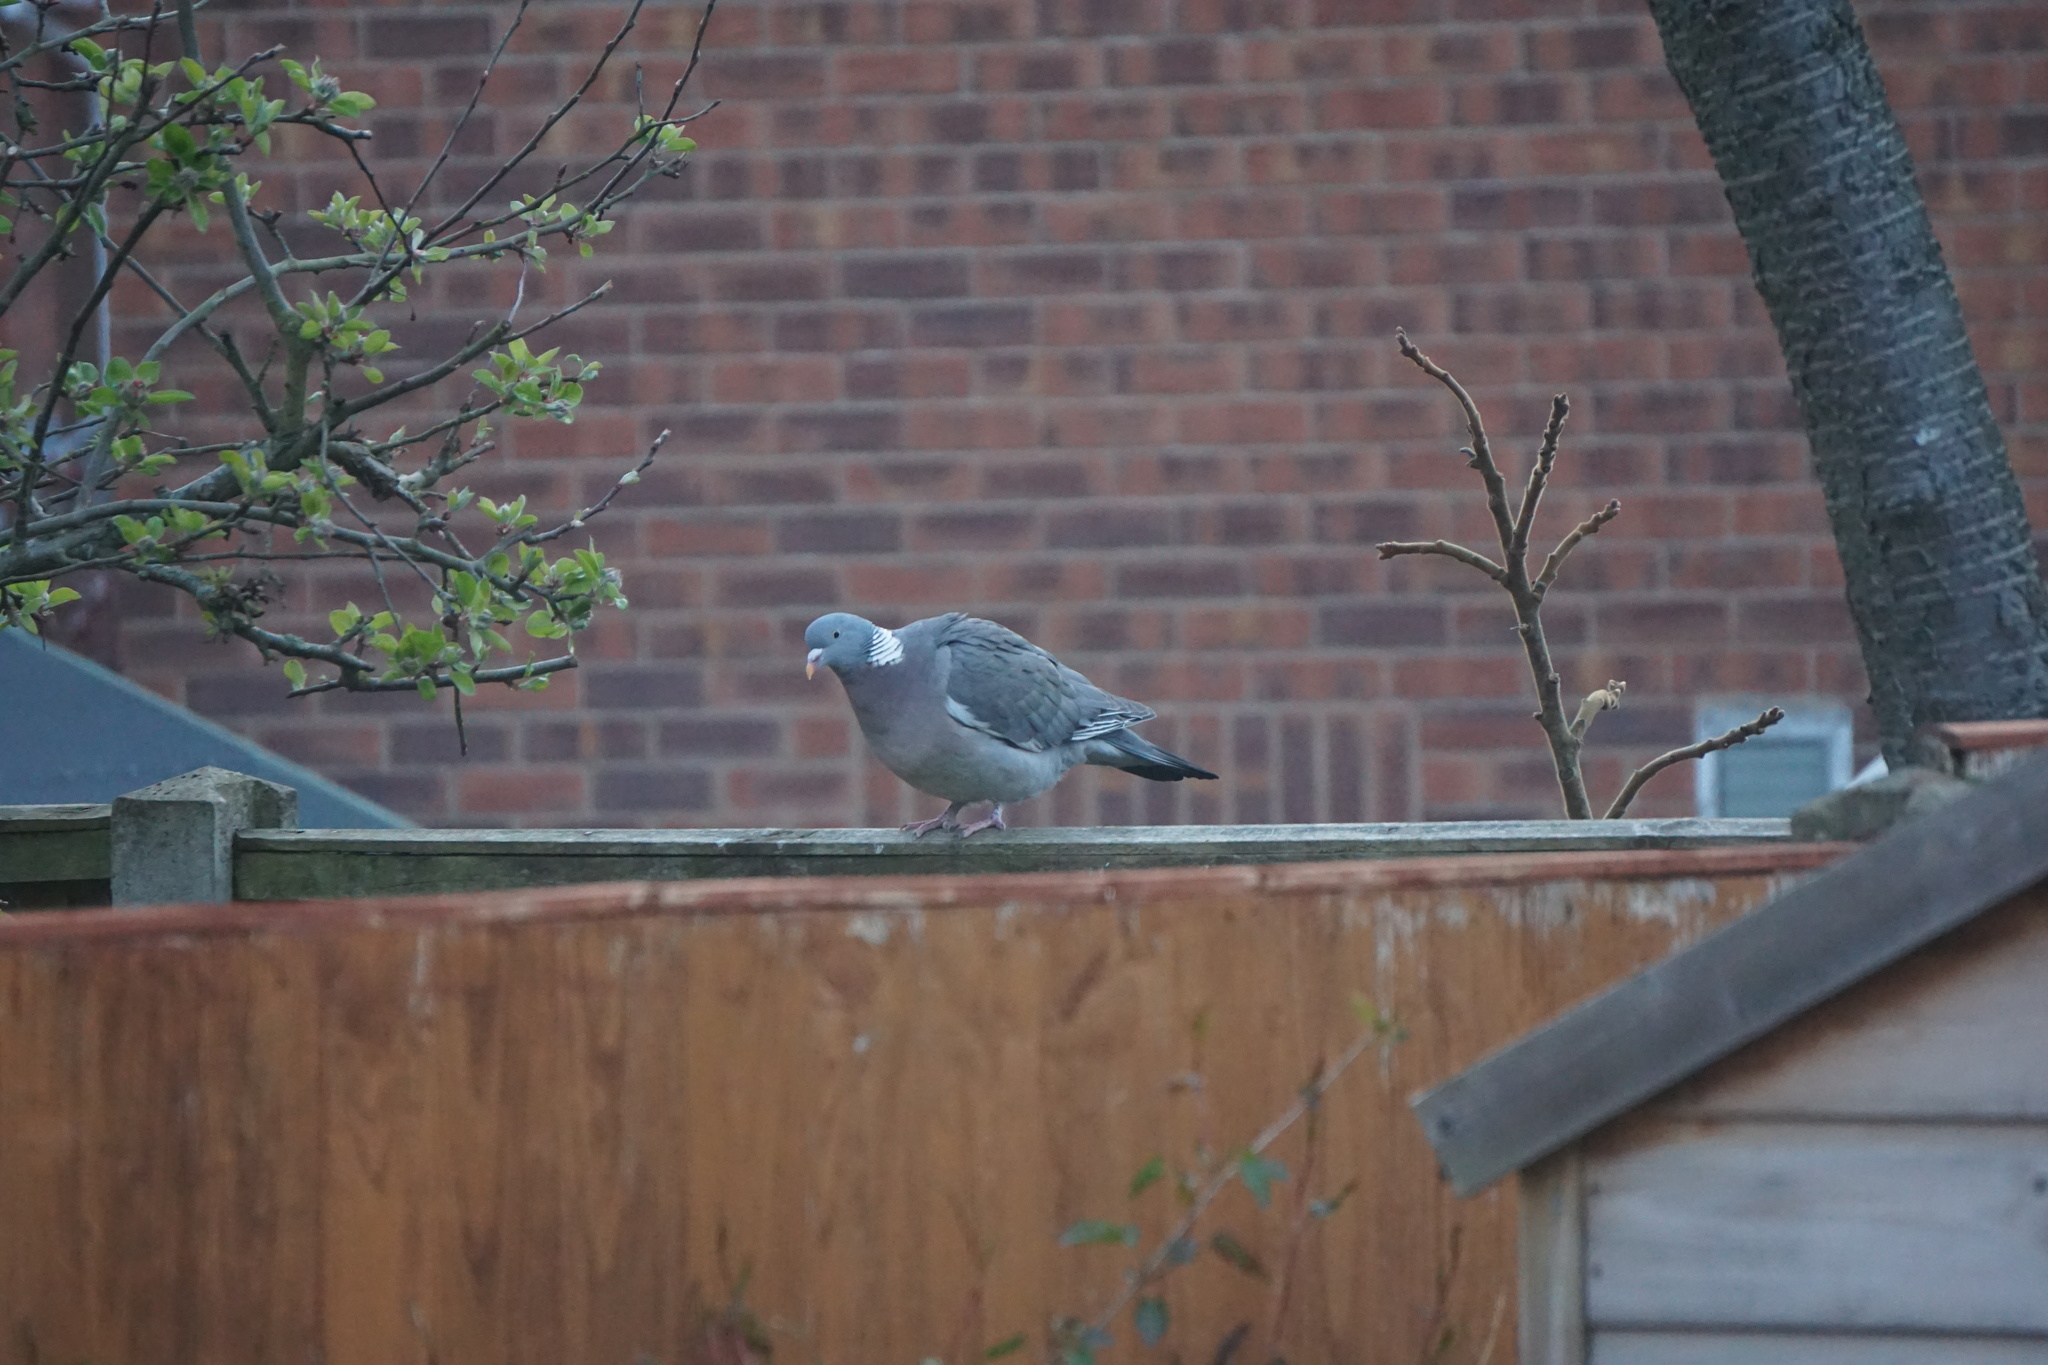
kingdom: Animalia
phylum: Chordata
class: Aves
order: Columbiformes
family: Columbidae
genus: Columba
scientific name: Columba palumbus
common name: Common wood pigeon
